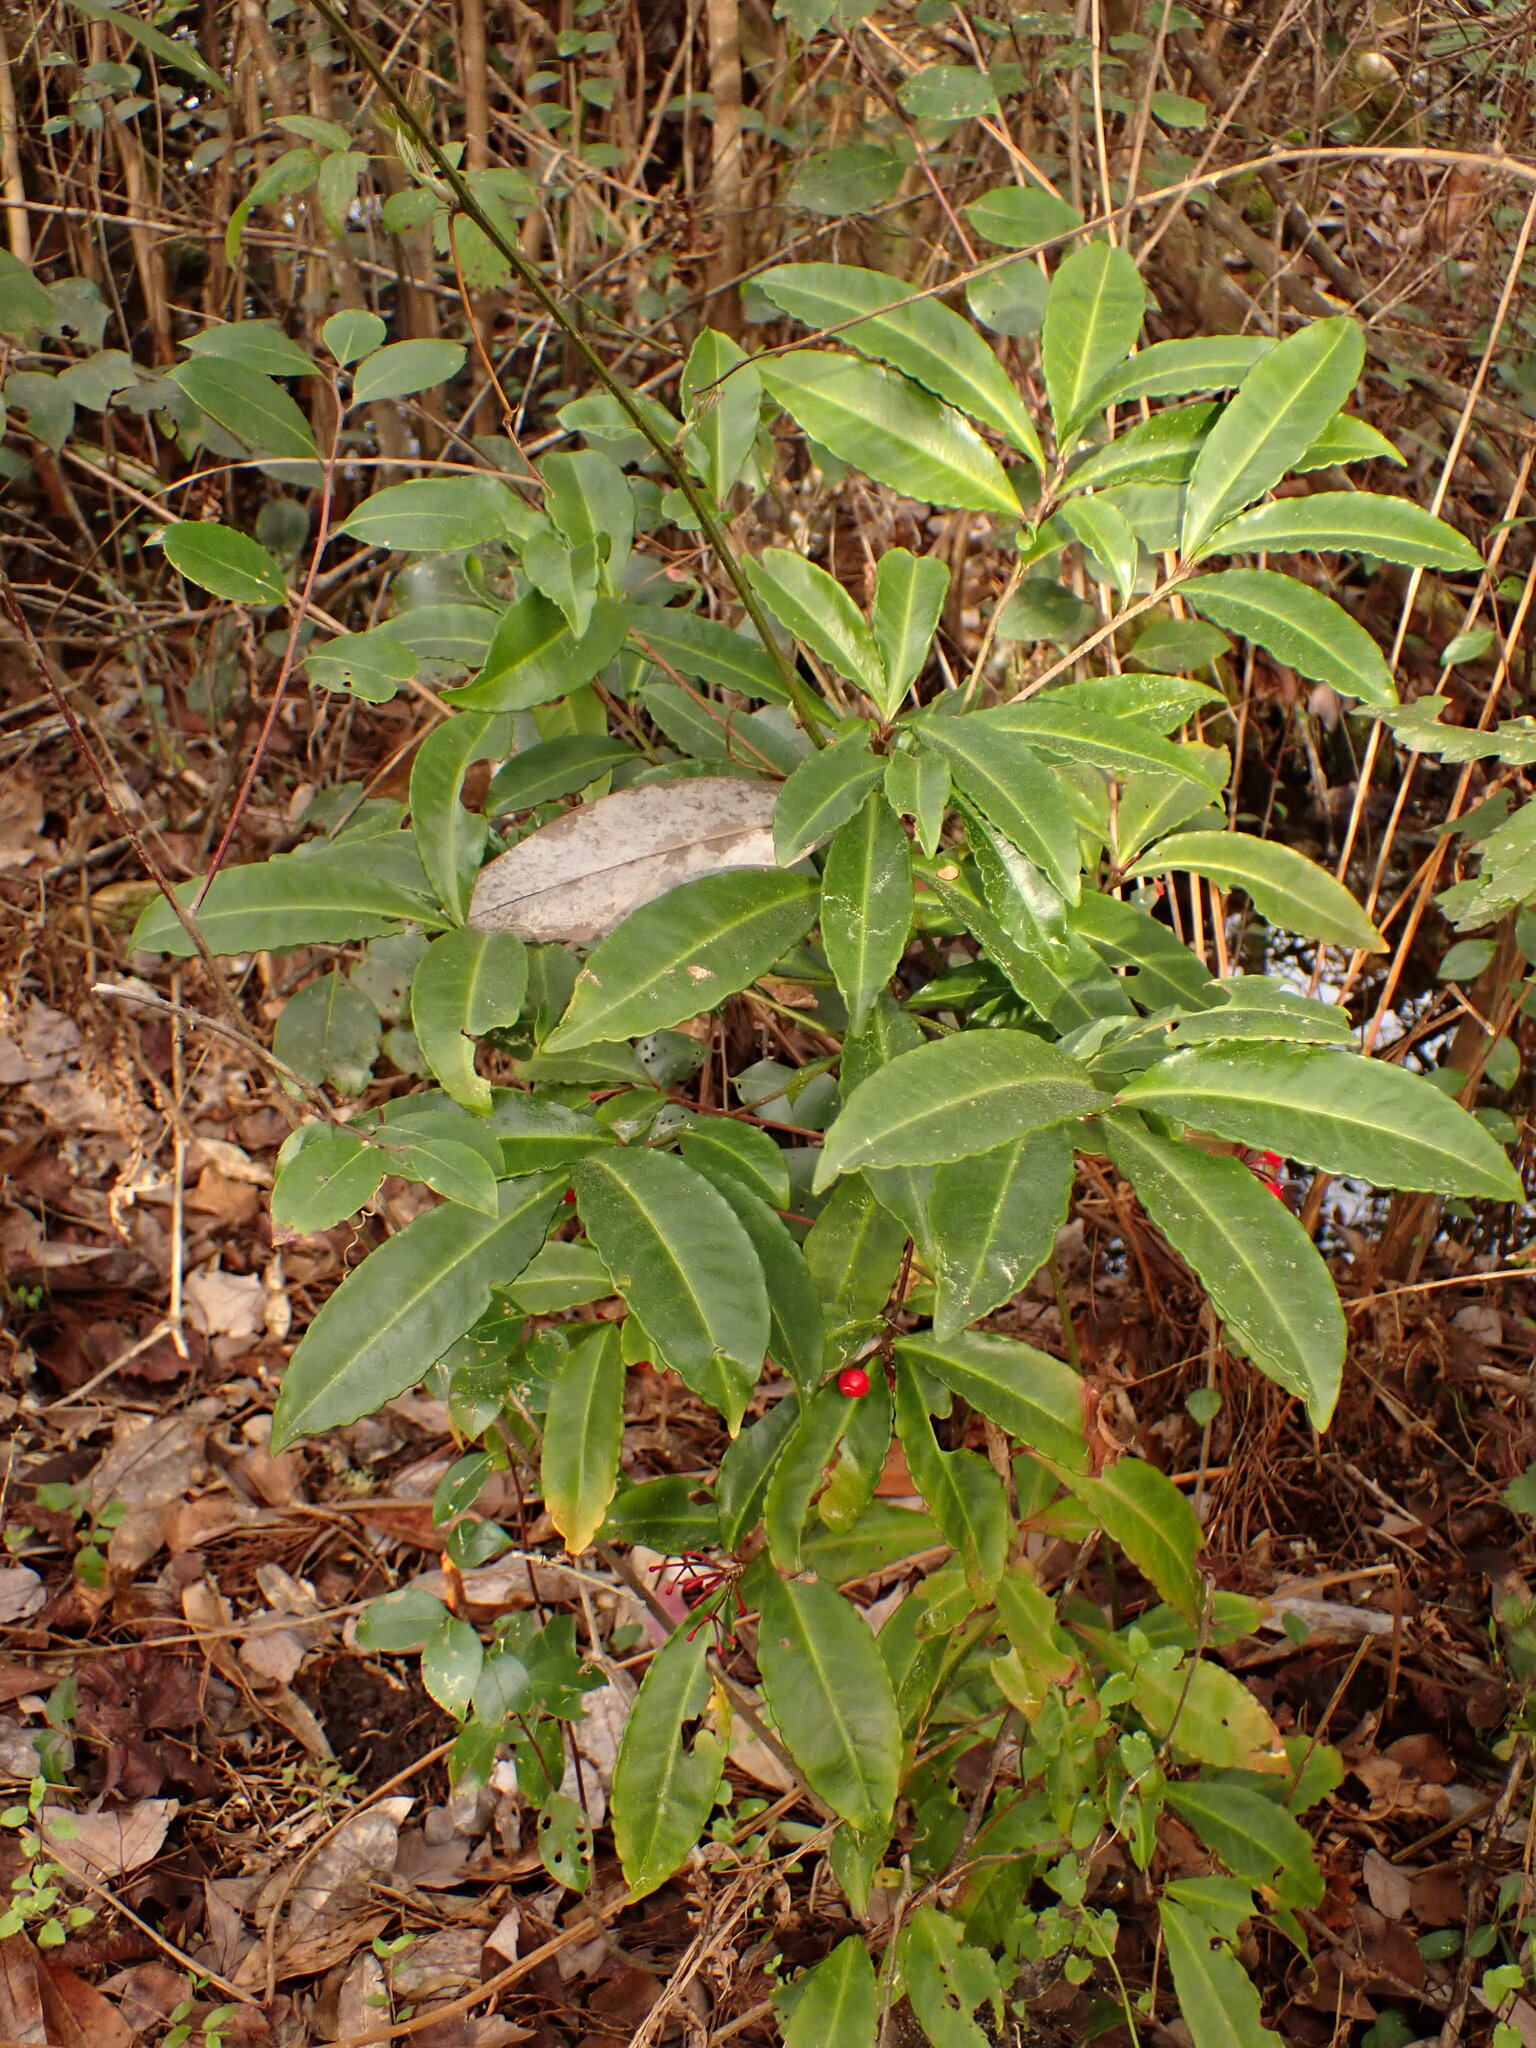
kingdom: Plantae
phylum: Tracheophyta
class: Magnoliopsida
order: Ericales
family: Primulaceae
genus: Ardisia
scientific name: Ardisia crenata
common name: Hen's eyes
